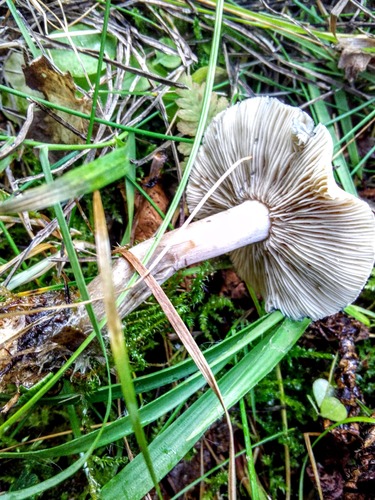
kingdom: Fungi
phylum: Basidiomycota
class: Agaricomycetes
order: Agaricales
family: Inocybaceae
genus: Inocybe
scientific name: Inocybe
